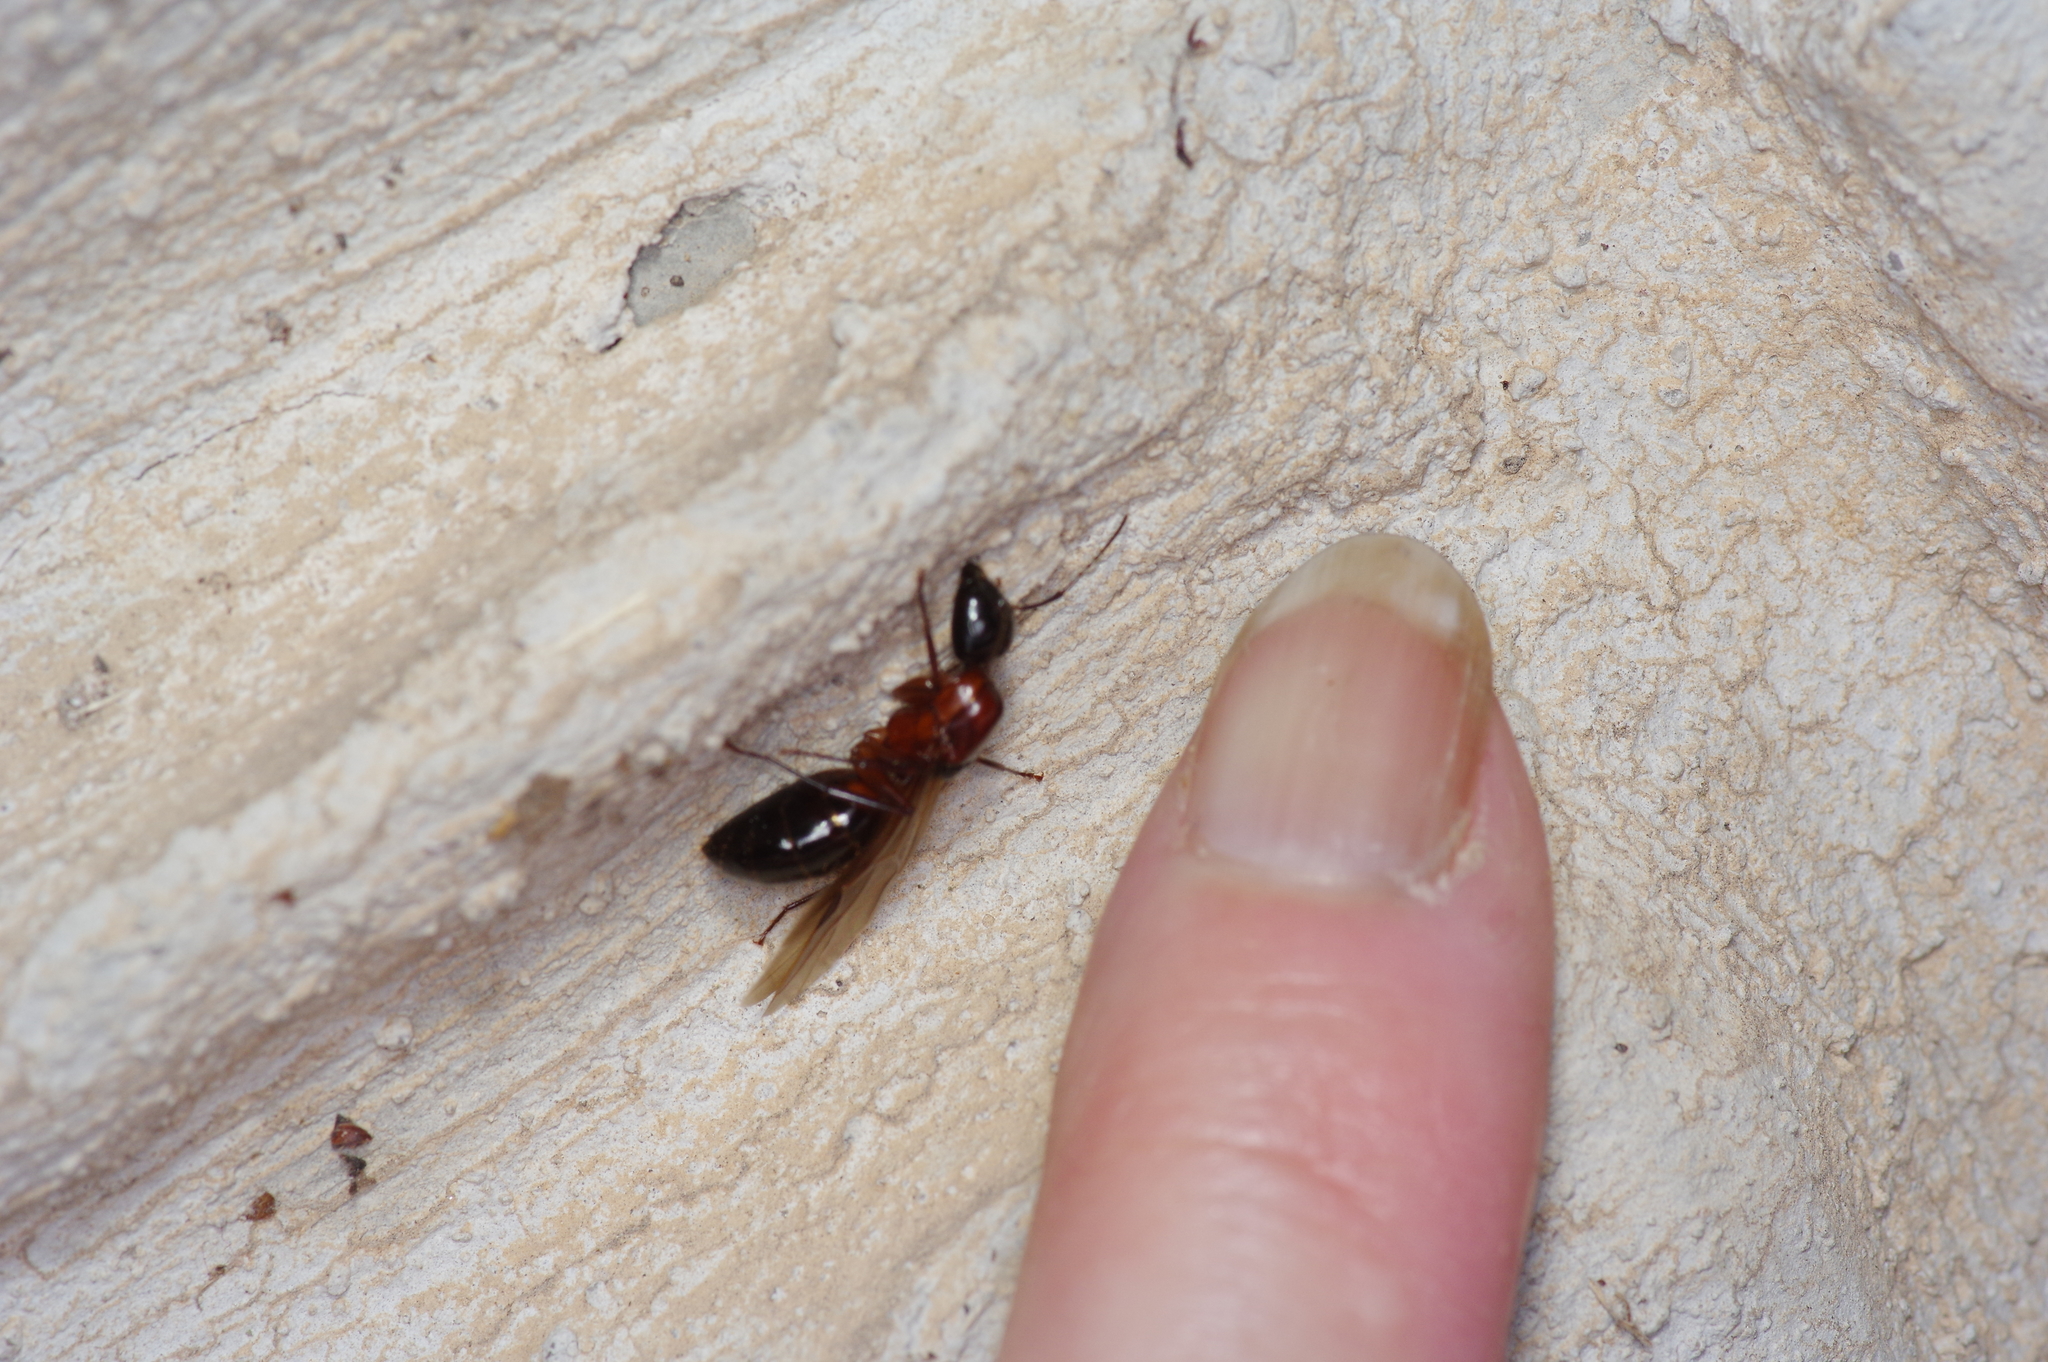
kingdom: Animalia
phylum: Arthropoda
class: Insecta
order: Hymenoptera
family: Formicidae
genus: Camponotus
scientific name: Camponotus texanus
